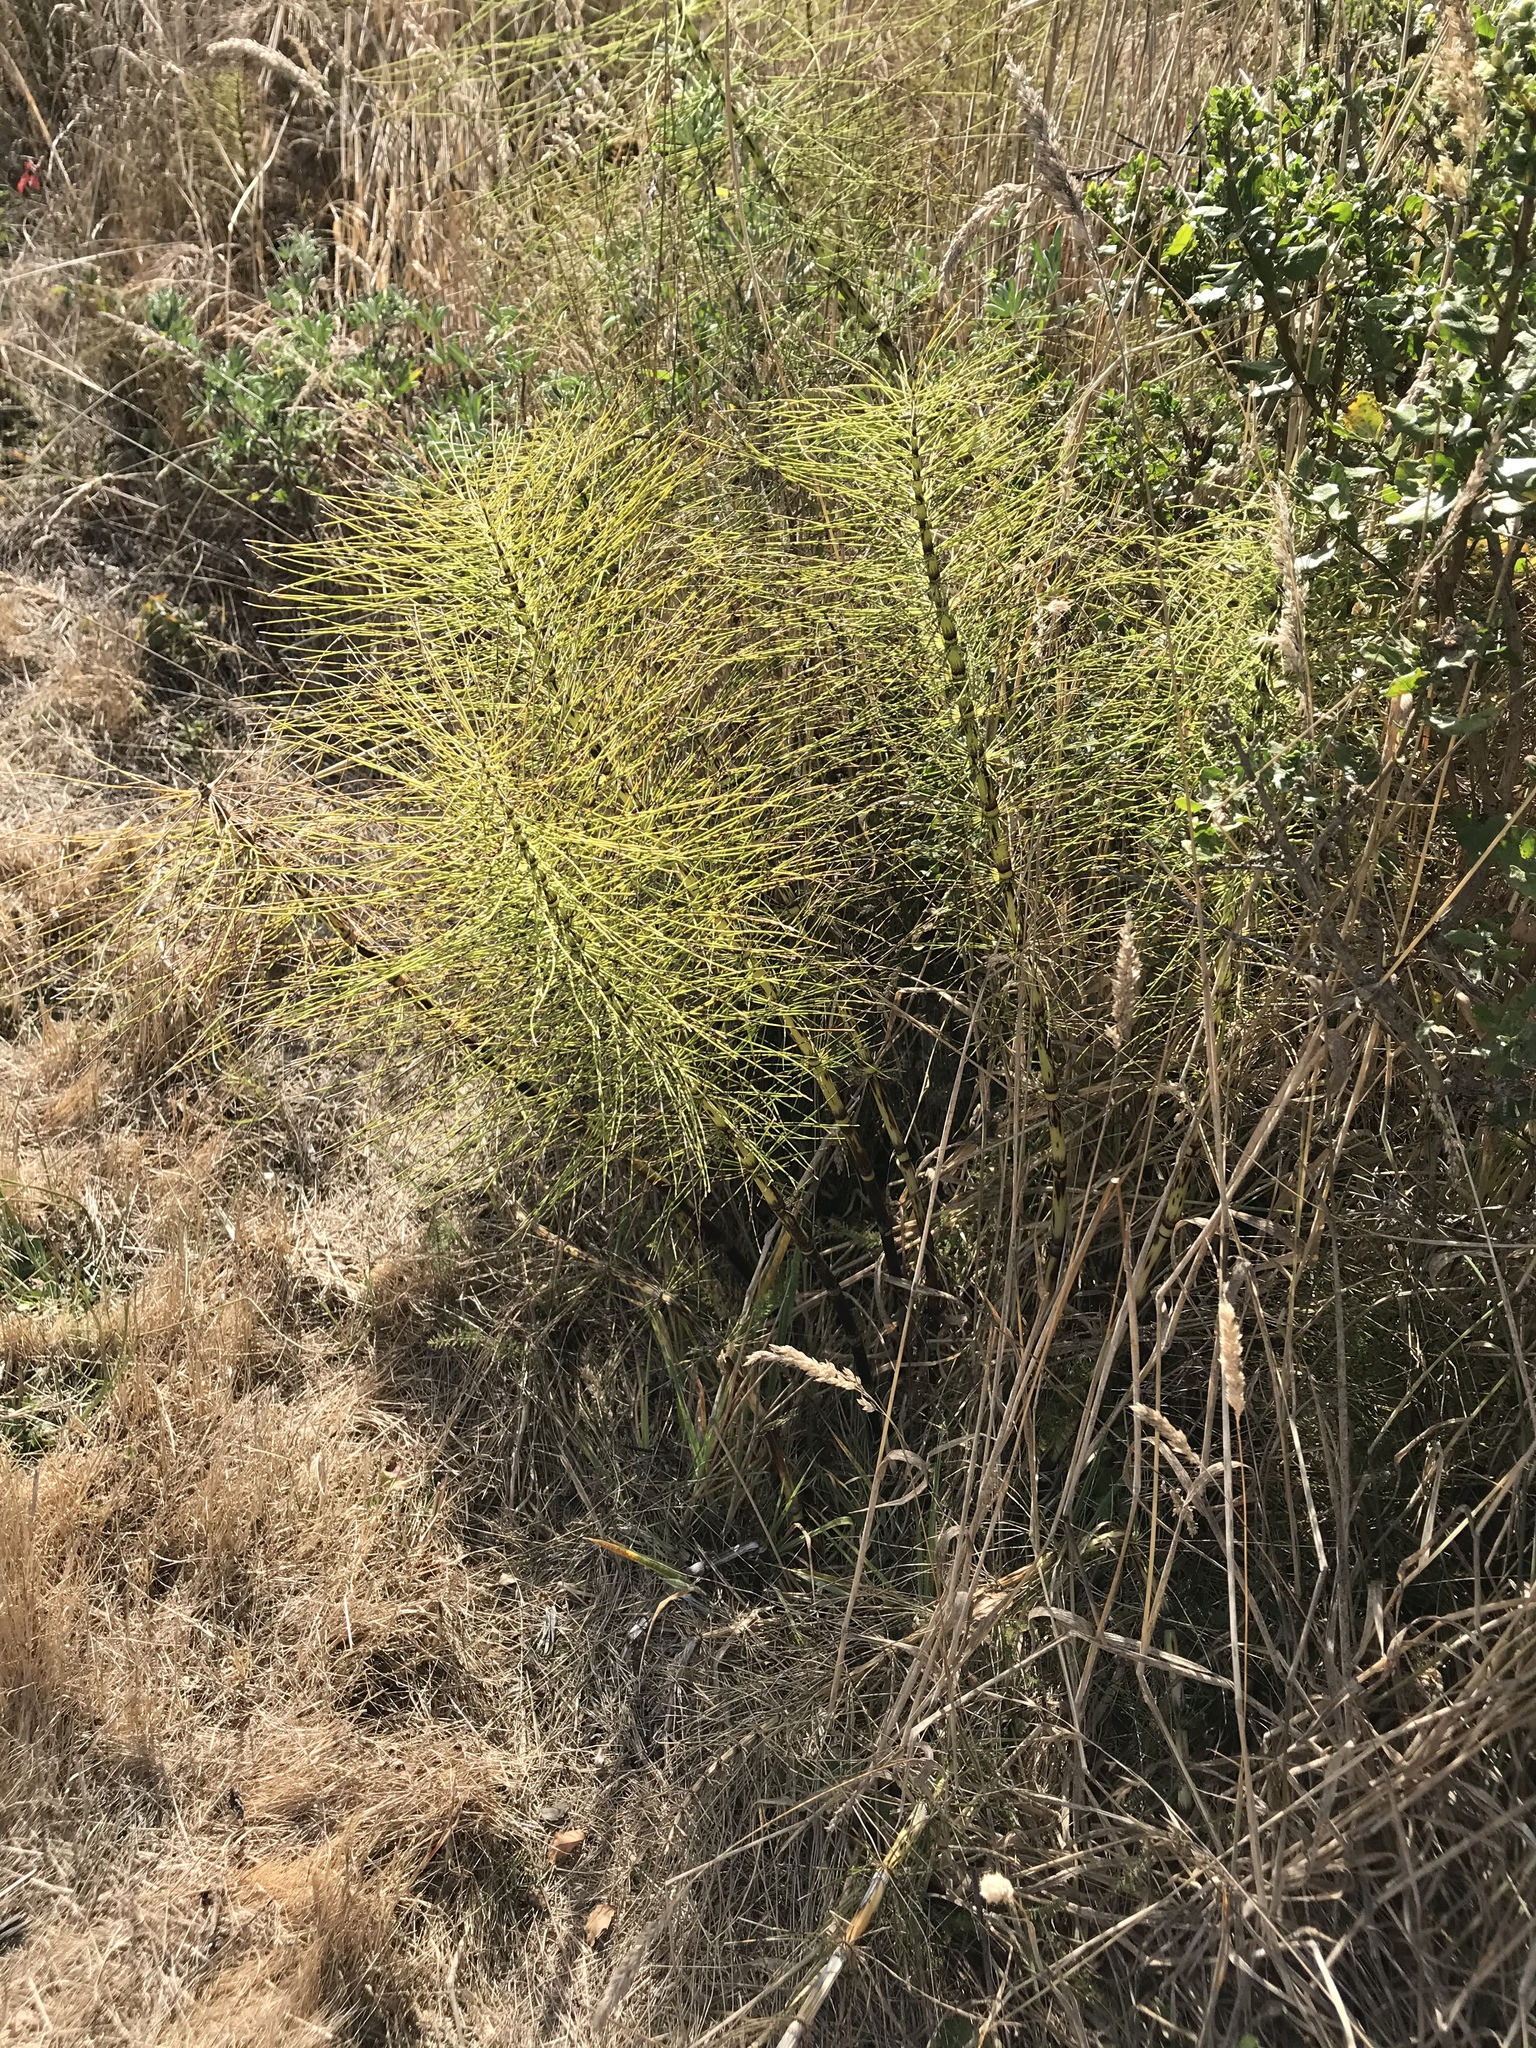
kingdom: Plantae
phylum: Tracheophyta
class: Polypodiopsida
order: Equisetales
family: Equisetaceae
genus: Equisetum
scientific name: Equisetum braunii
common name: Braun's horsetail
